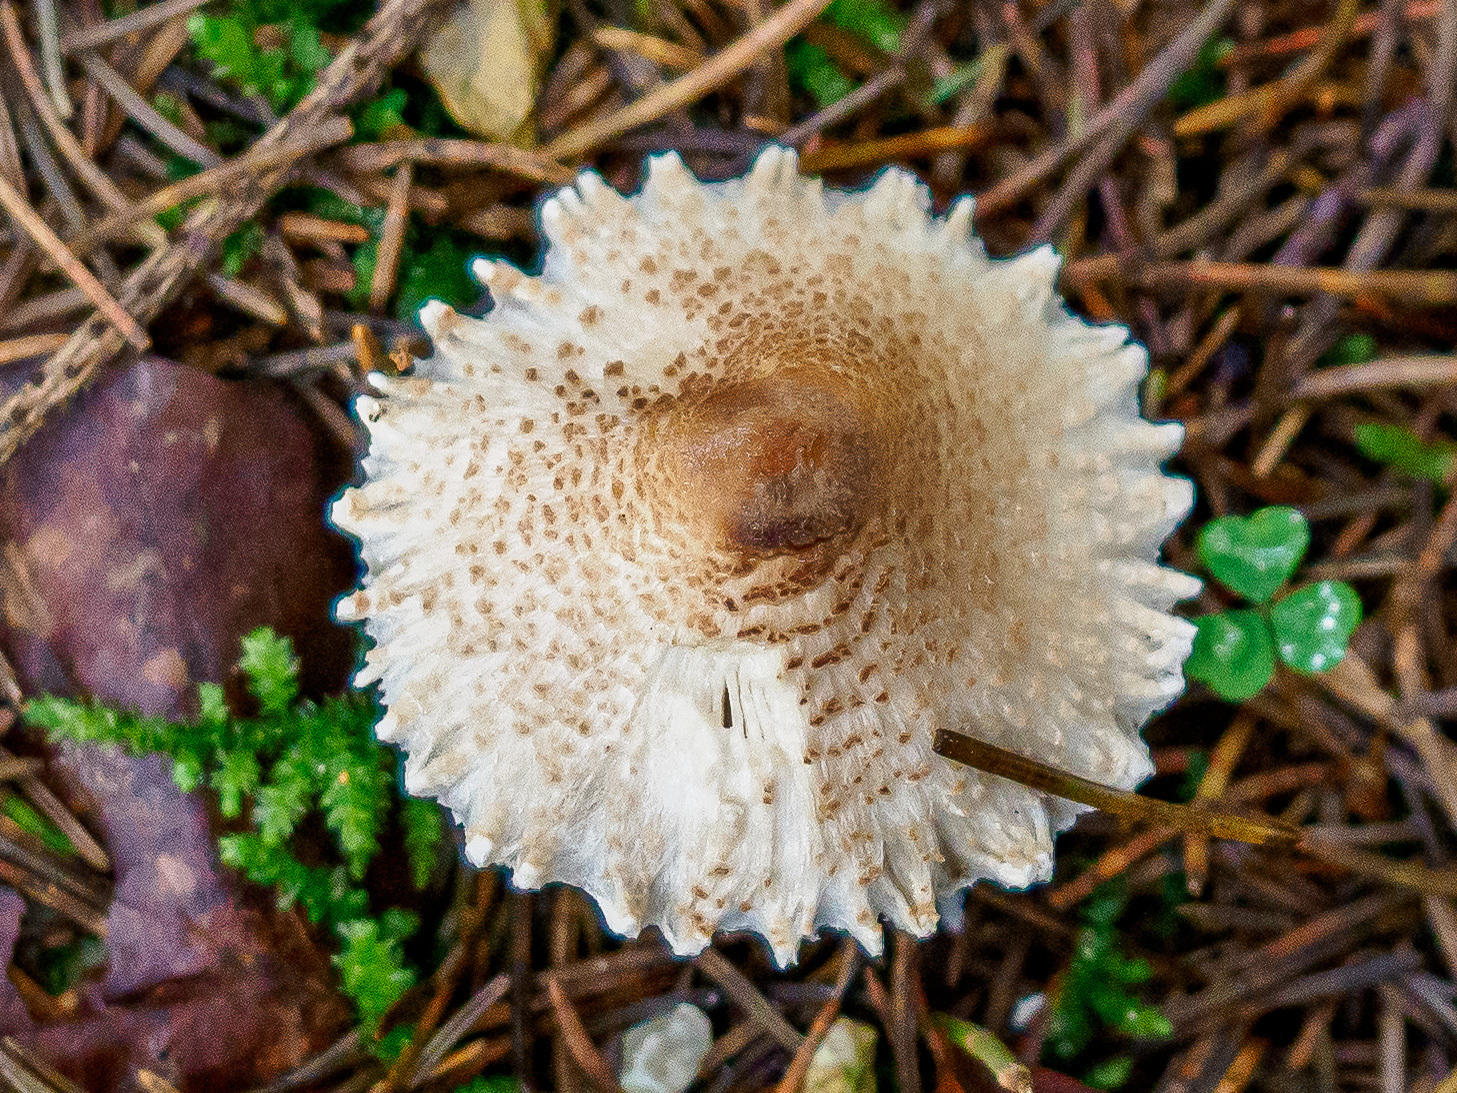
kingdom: Fungi
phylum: Basidiomycota
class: Agaricomycetes
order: Agaricales
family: Agaricaceae
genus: Lepiota
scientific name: Lepiota clypeolaria
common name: Shield dapperling
